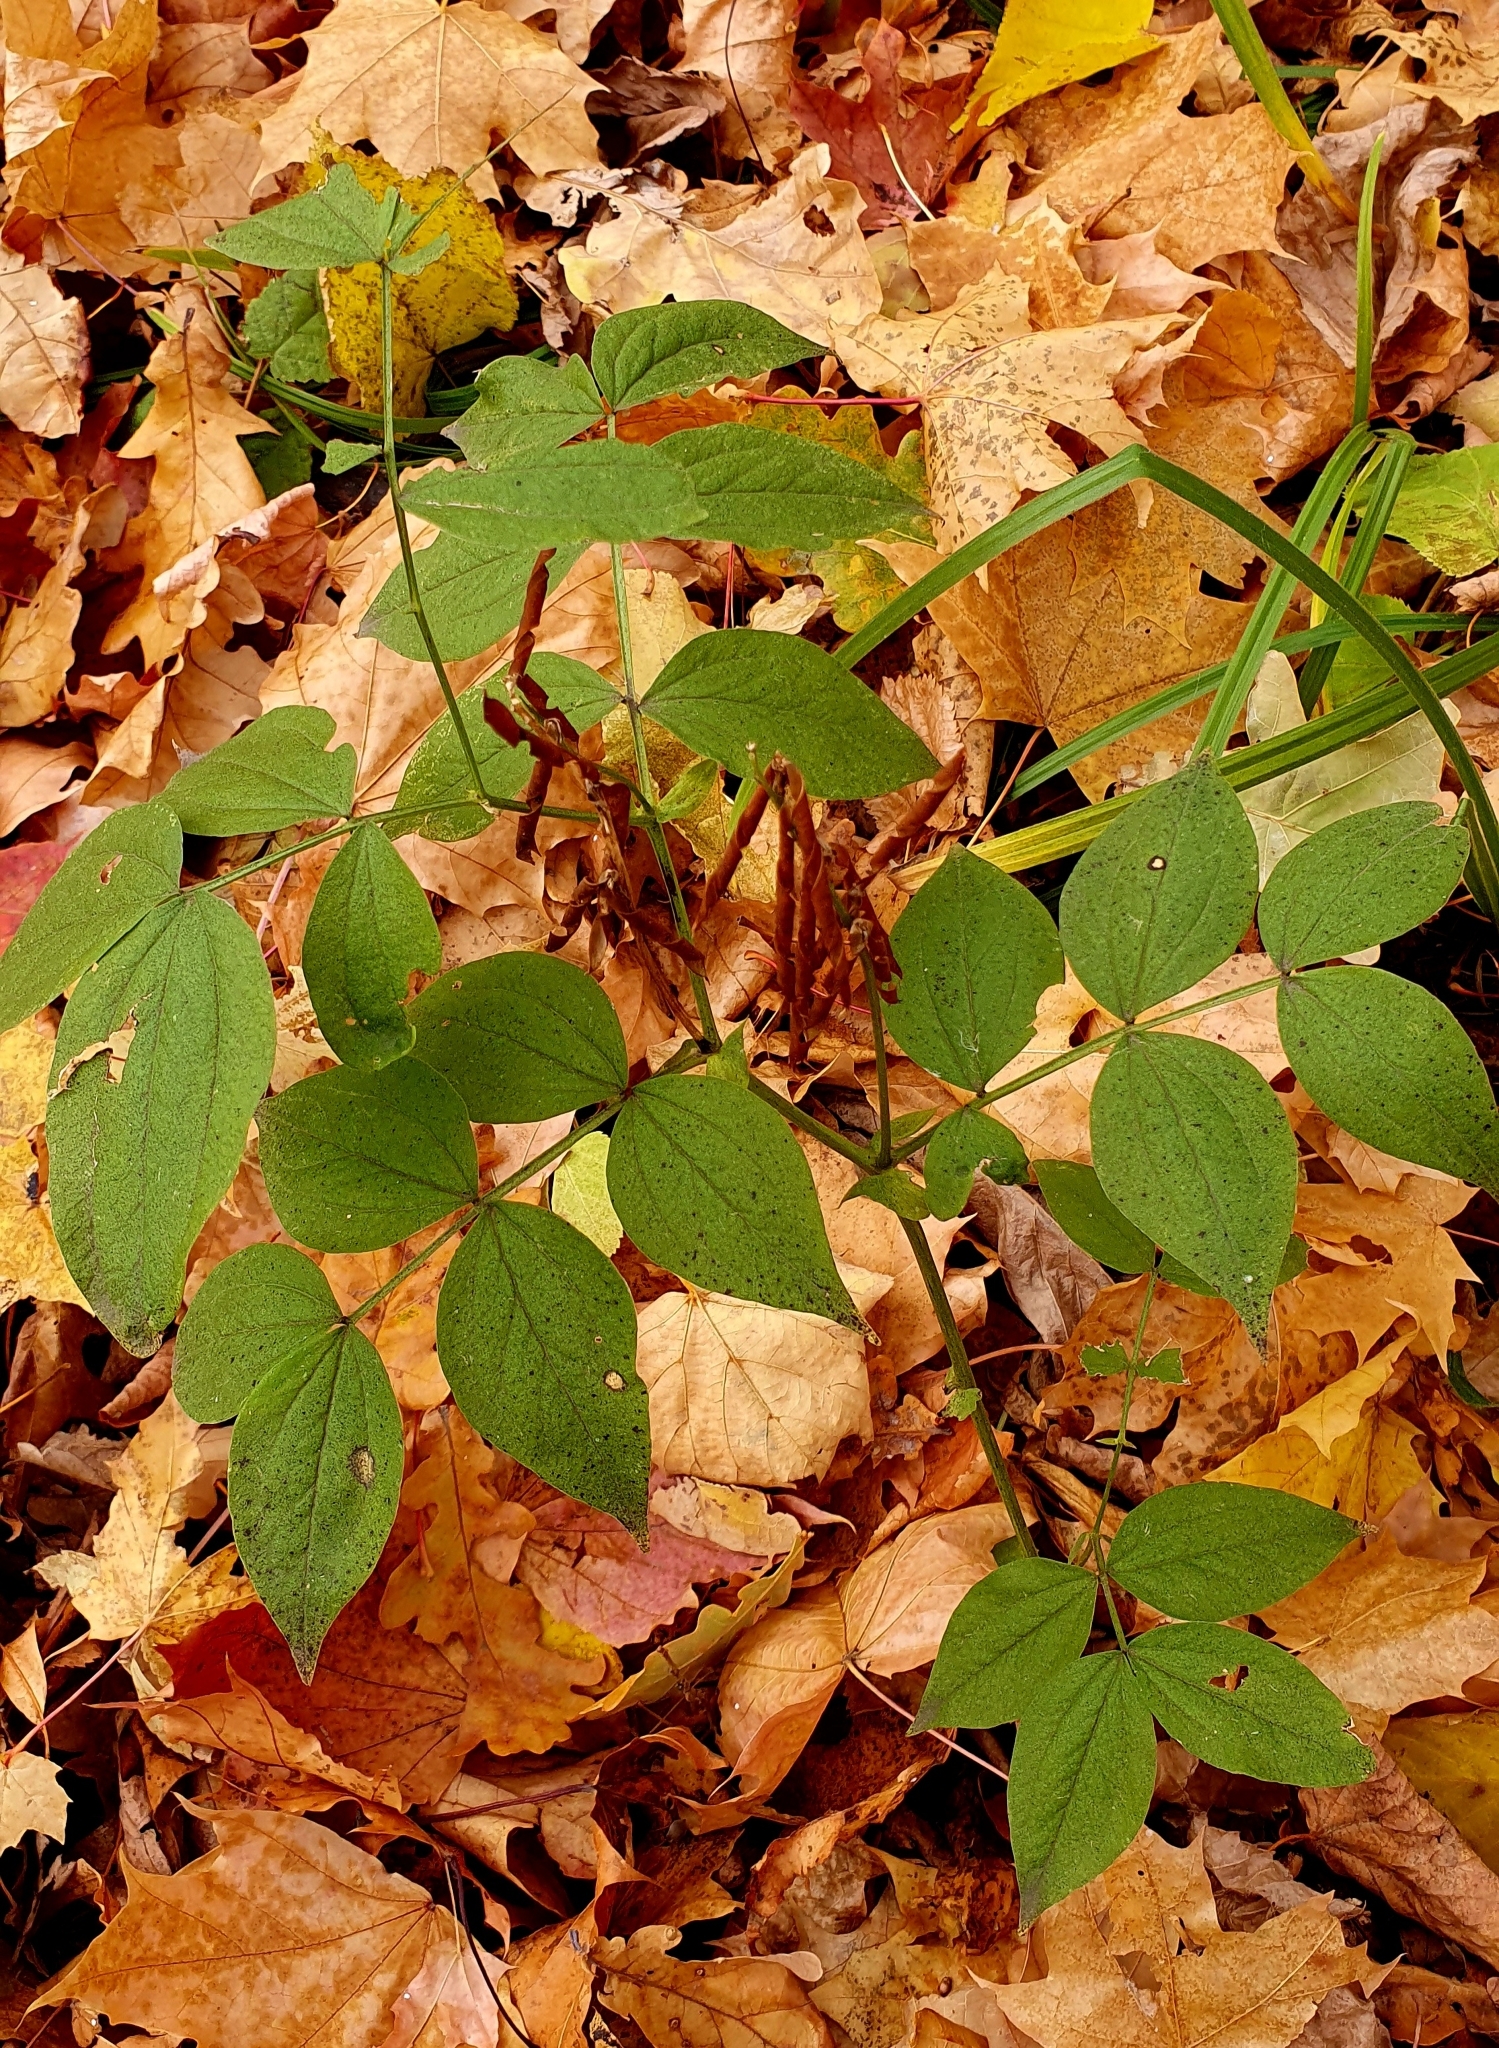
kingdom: Plantae
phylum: Tracheophyta
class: Magnoliopsida
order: Fabales
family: Fabaceae
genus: Lathyrus
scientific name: Lathyrus vernus
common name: Spring pea
